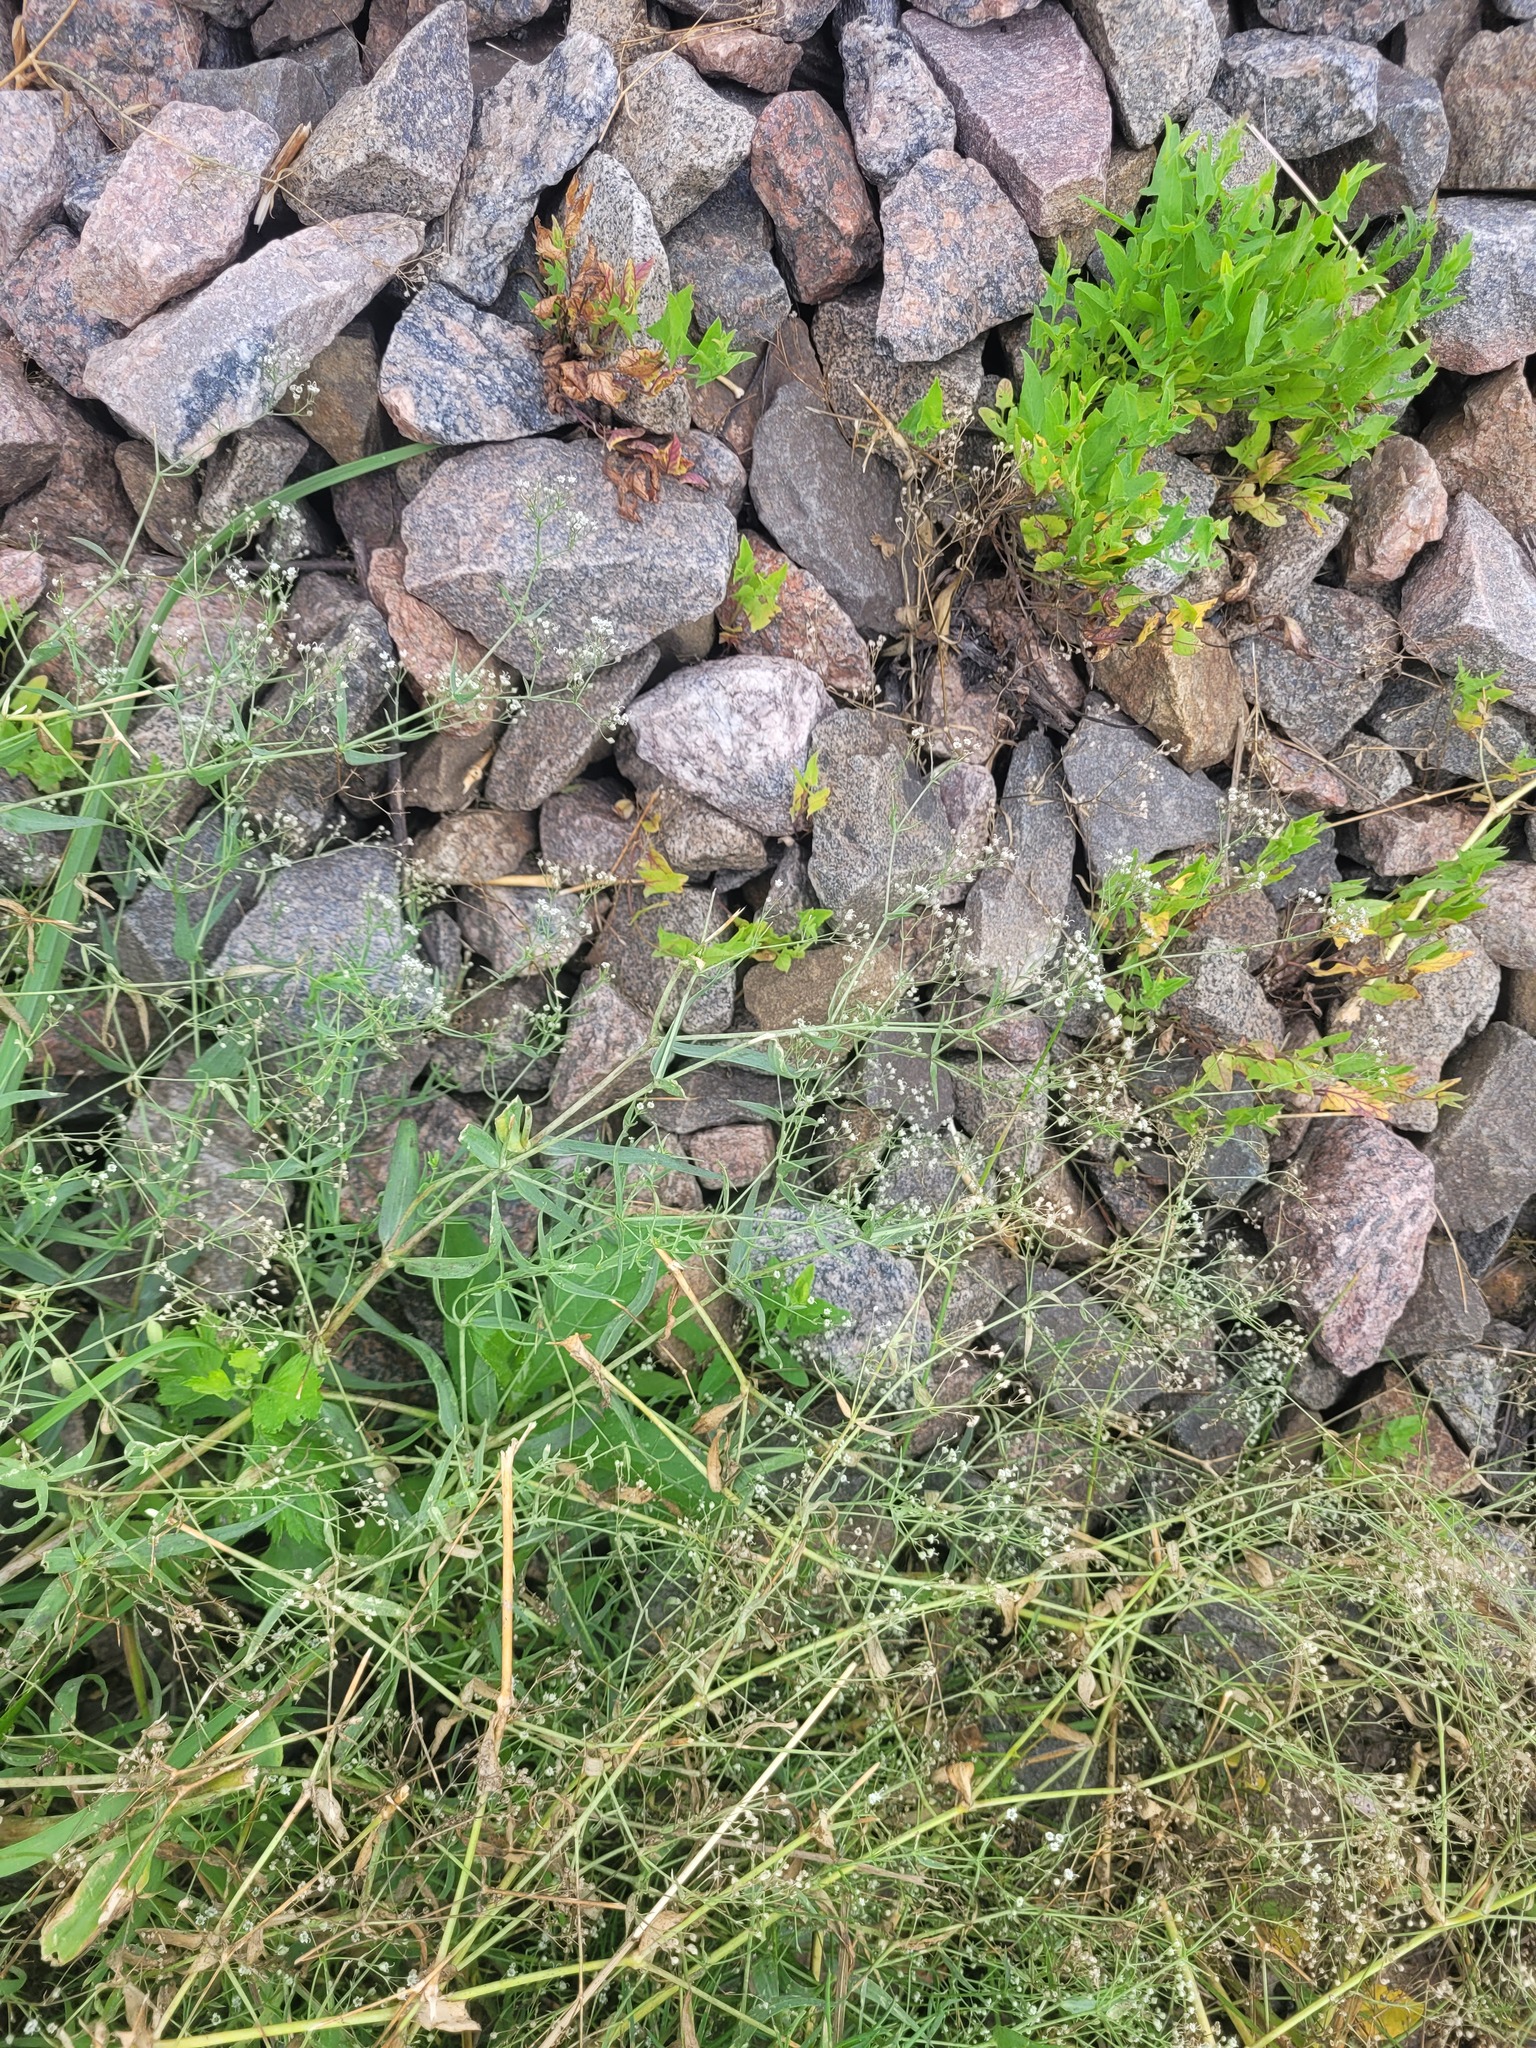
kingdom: Plantae
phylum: Tracheophyta
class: Magnoliopsida
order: Caryophyllales
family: Caryophyllaceae
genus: Gypsophila
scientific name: Gypsophila paniculata
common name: Baby's-breath
